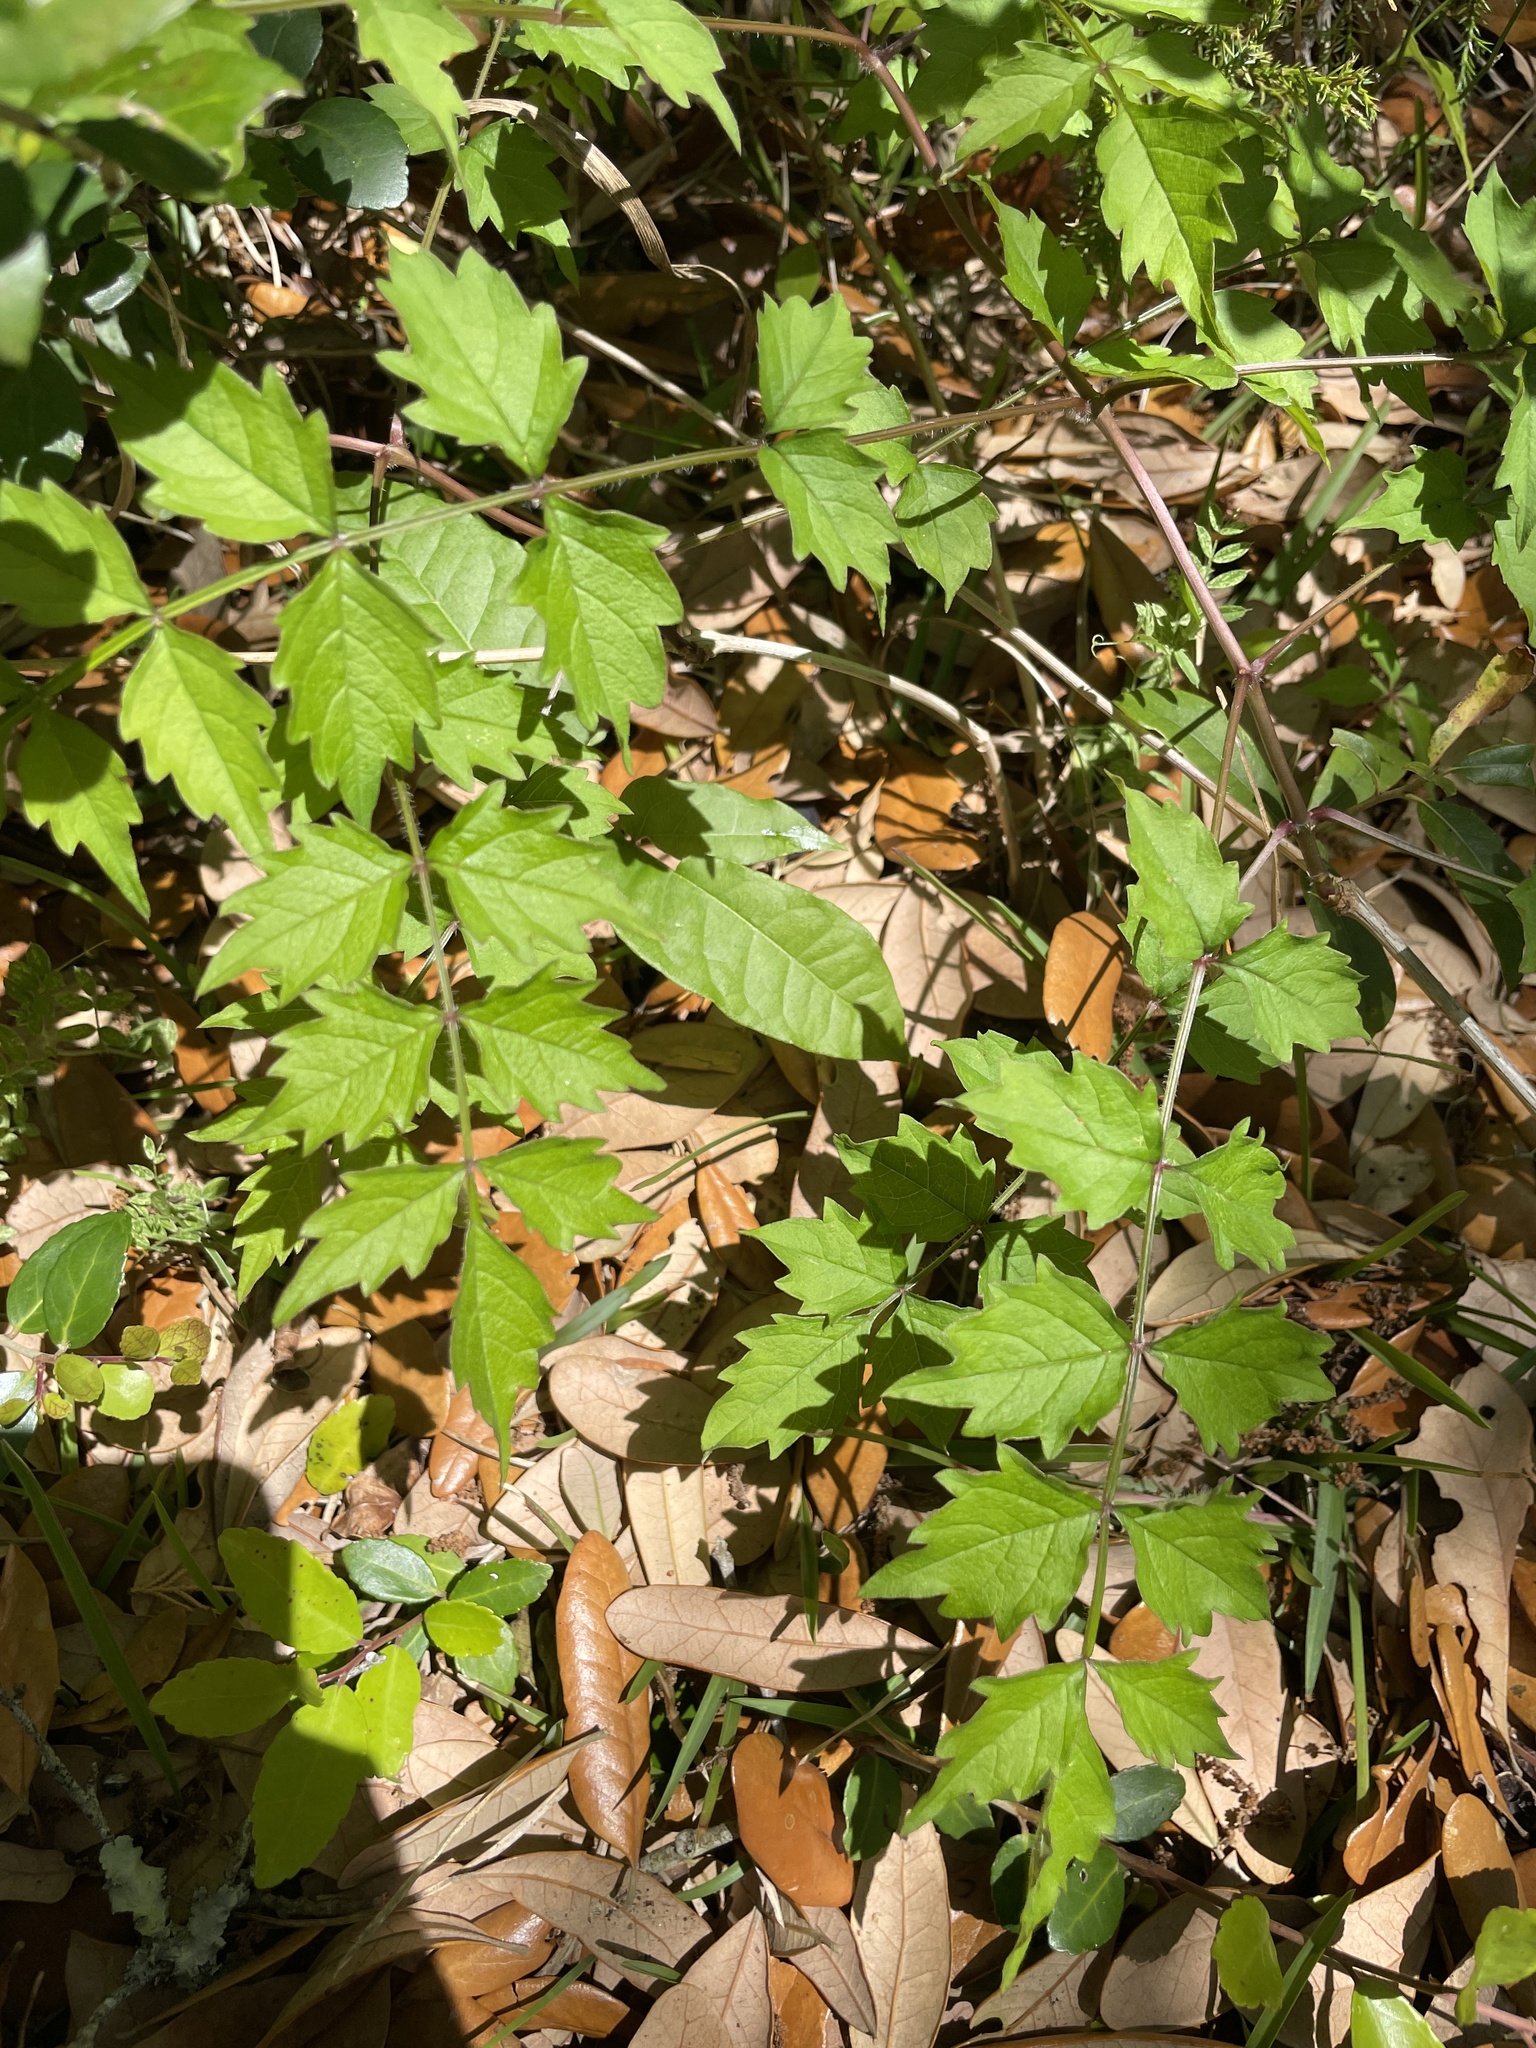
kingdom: Plantae
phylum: Tracheophyta
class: Magnoliopsida
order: Lamiales
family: Bignoniaceae
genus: Campsis
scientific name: Campsis radicans
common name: Trumpet-creeper
